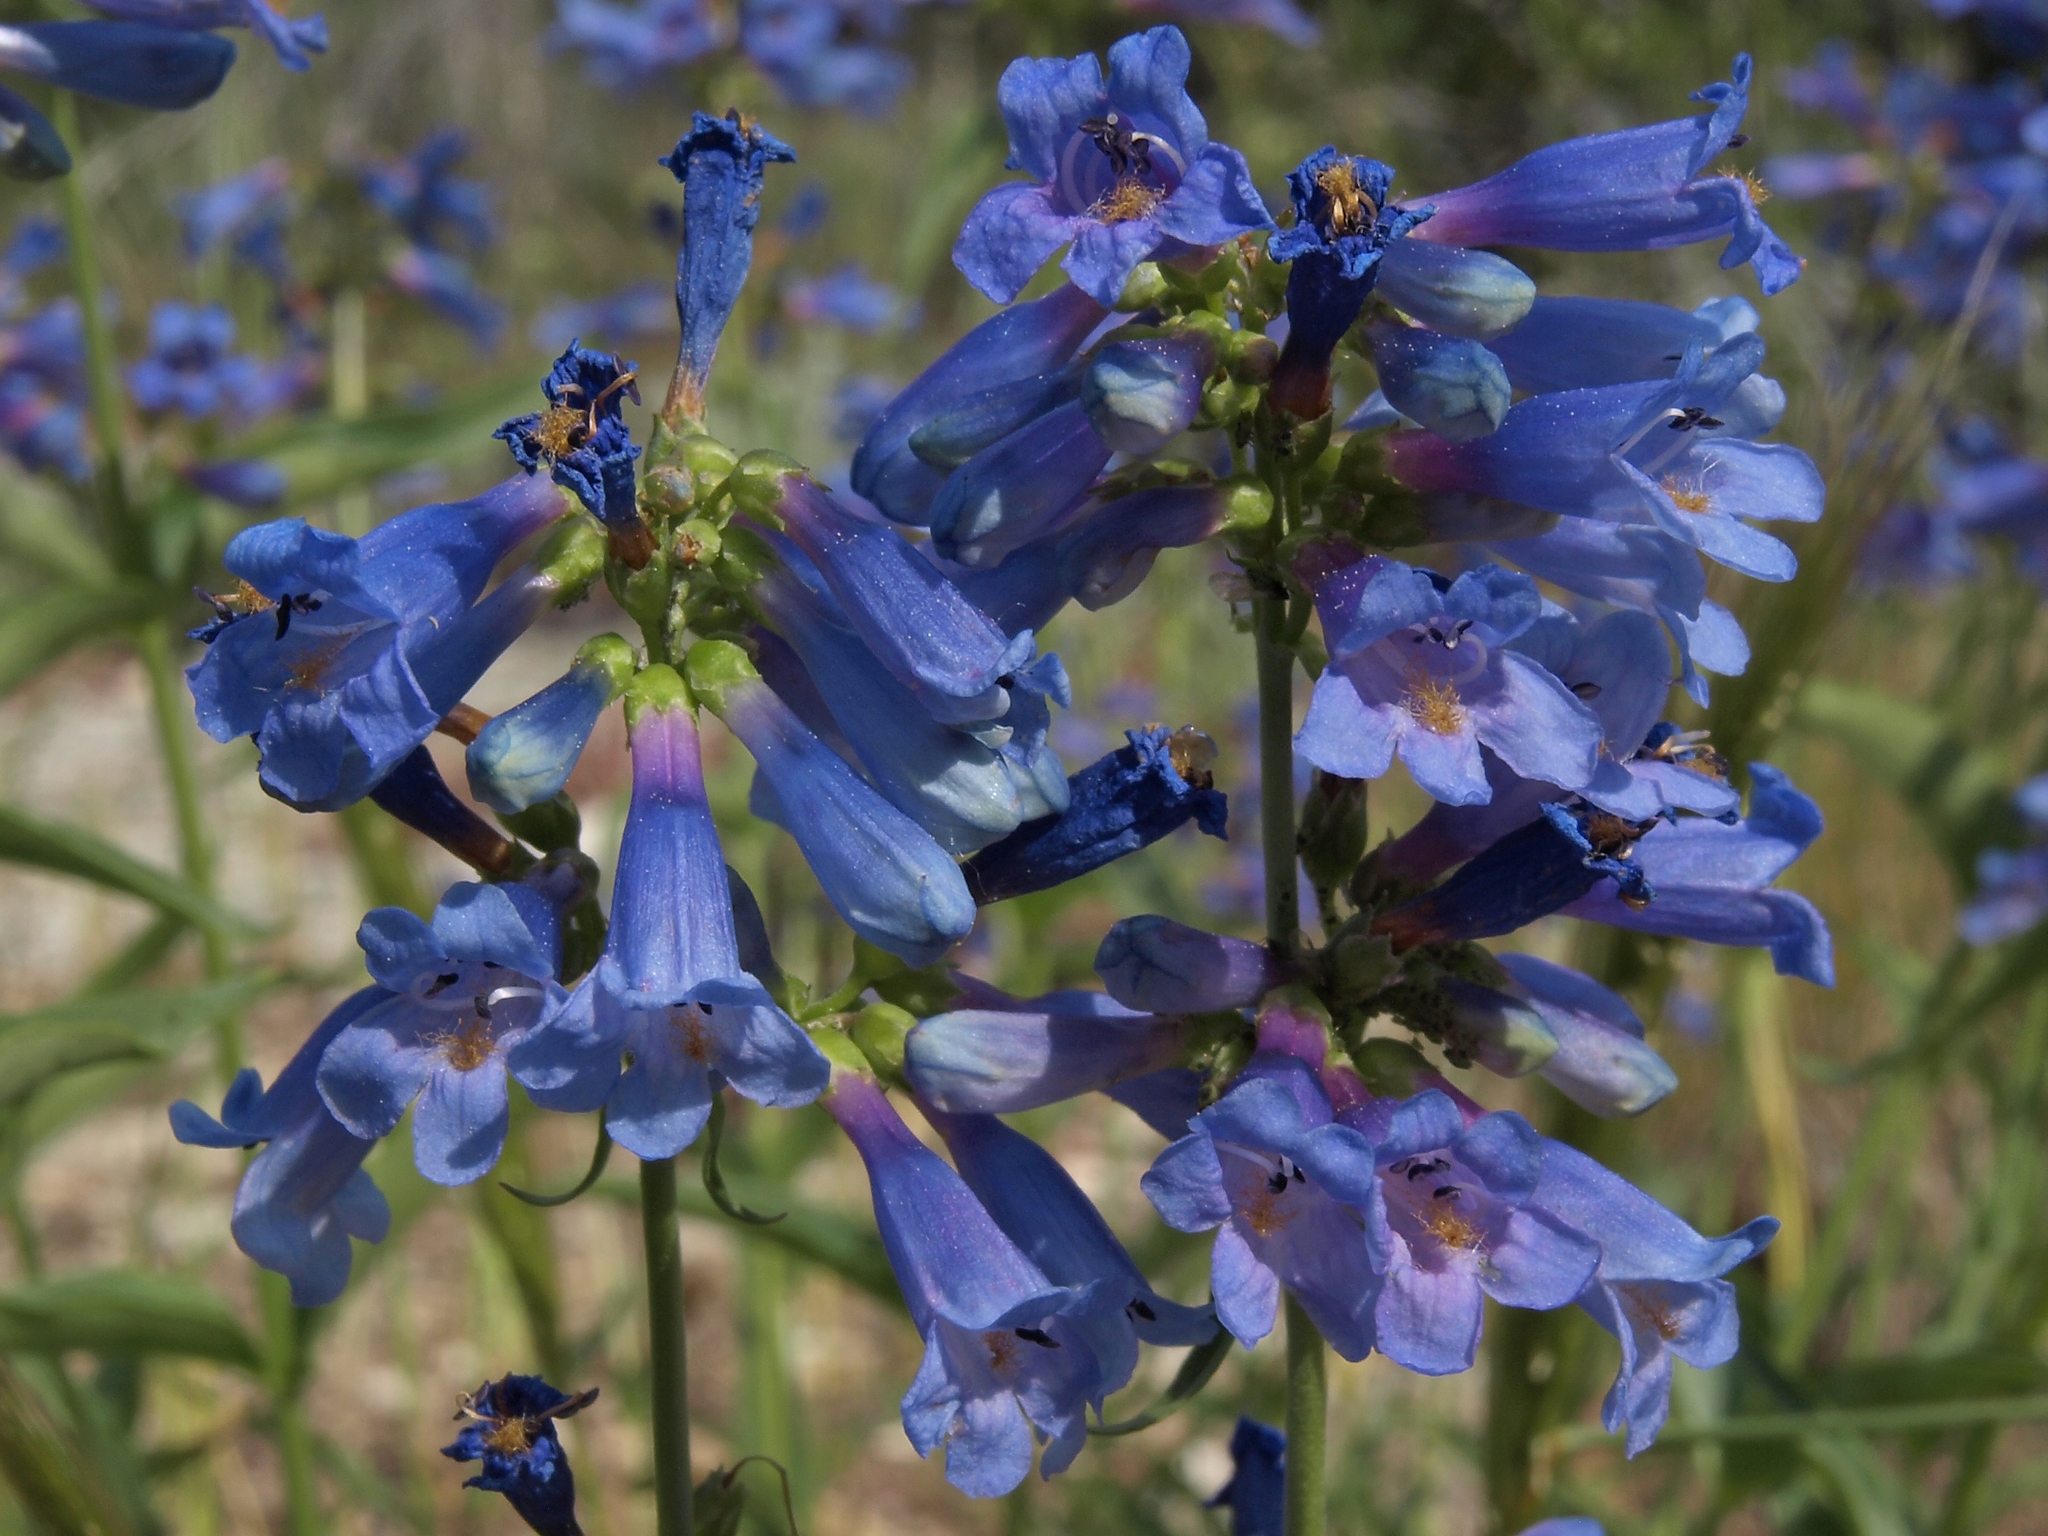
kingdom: Plantae
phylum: Tracheophyta
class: Magnoliopsida
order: Lamiales
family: Plantaginaceae
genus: Penstemon
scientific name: Penstemon watsonii
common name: Watson's penstemon
